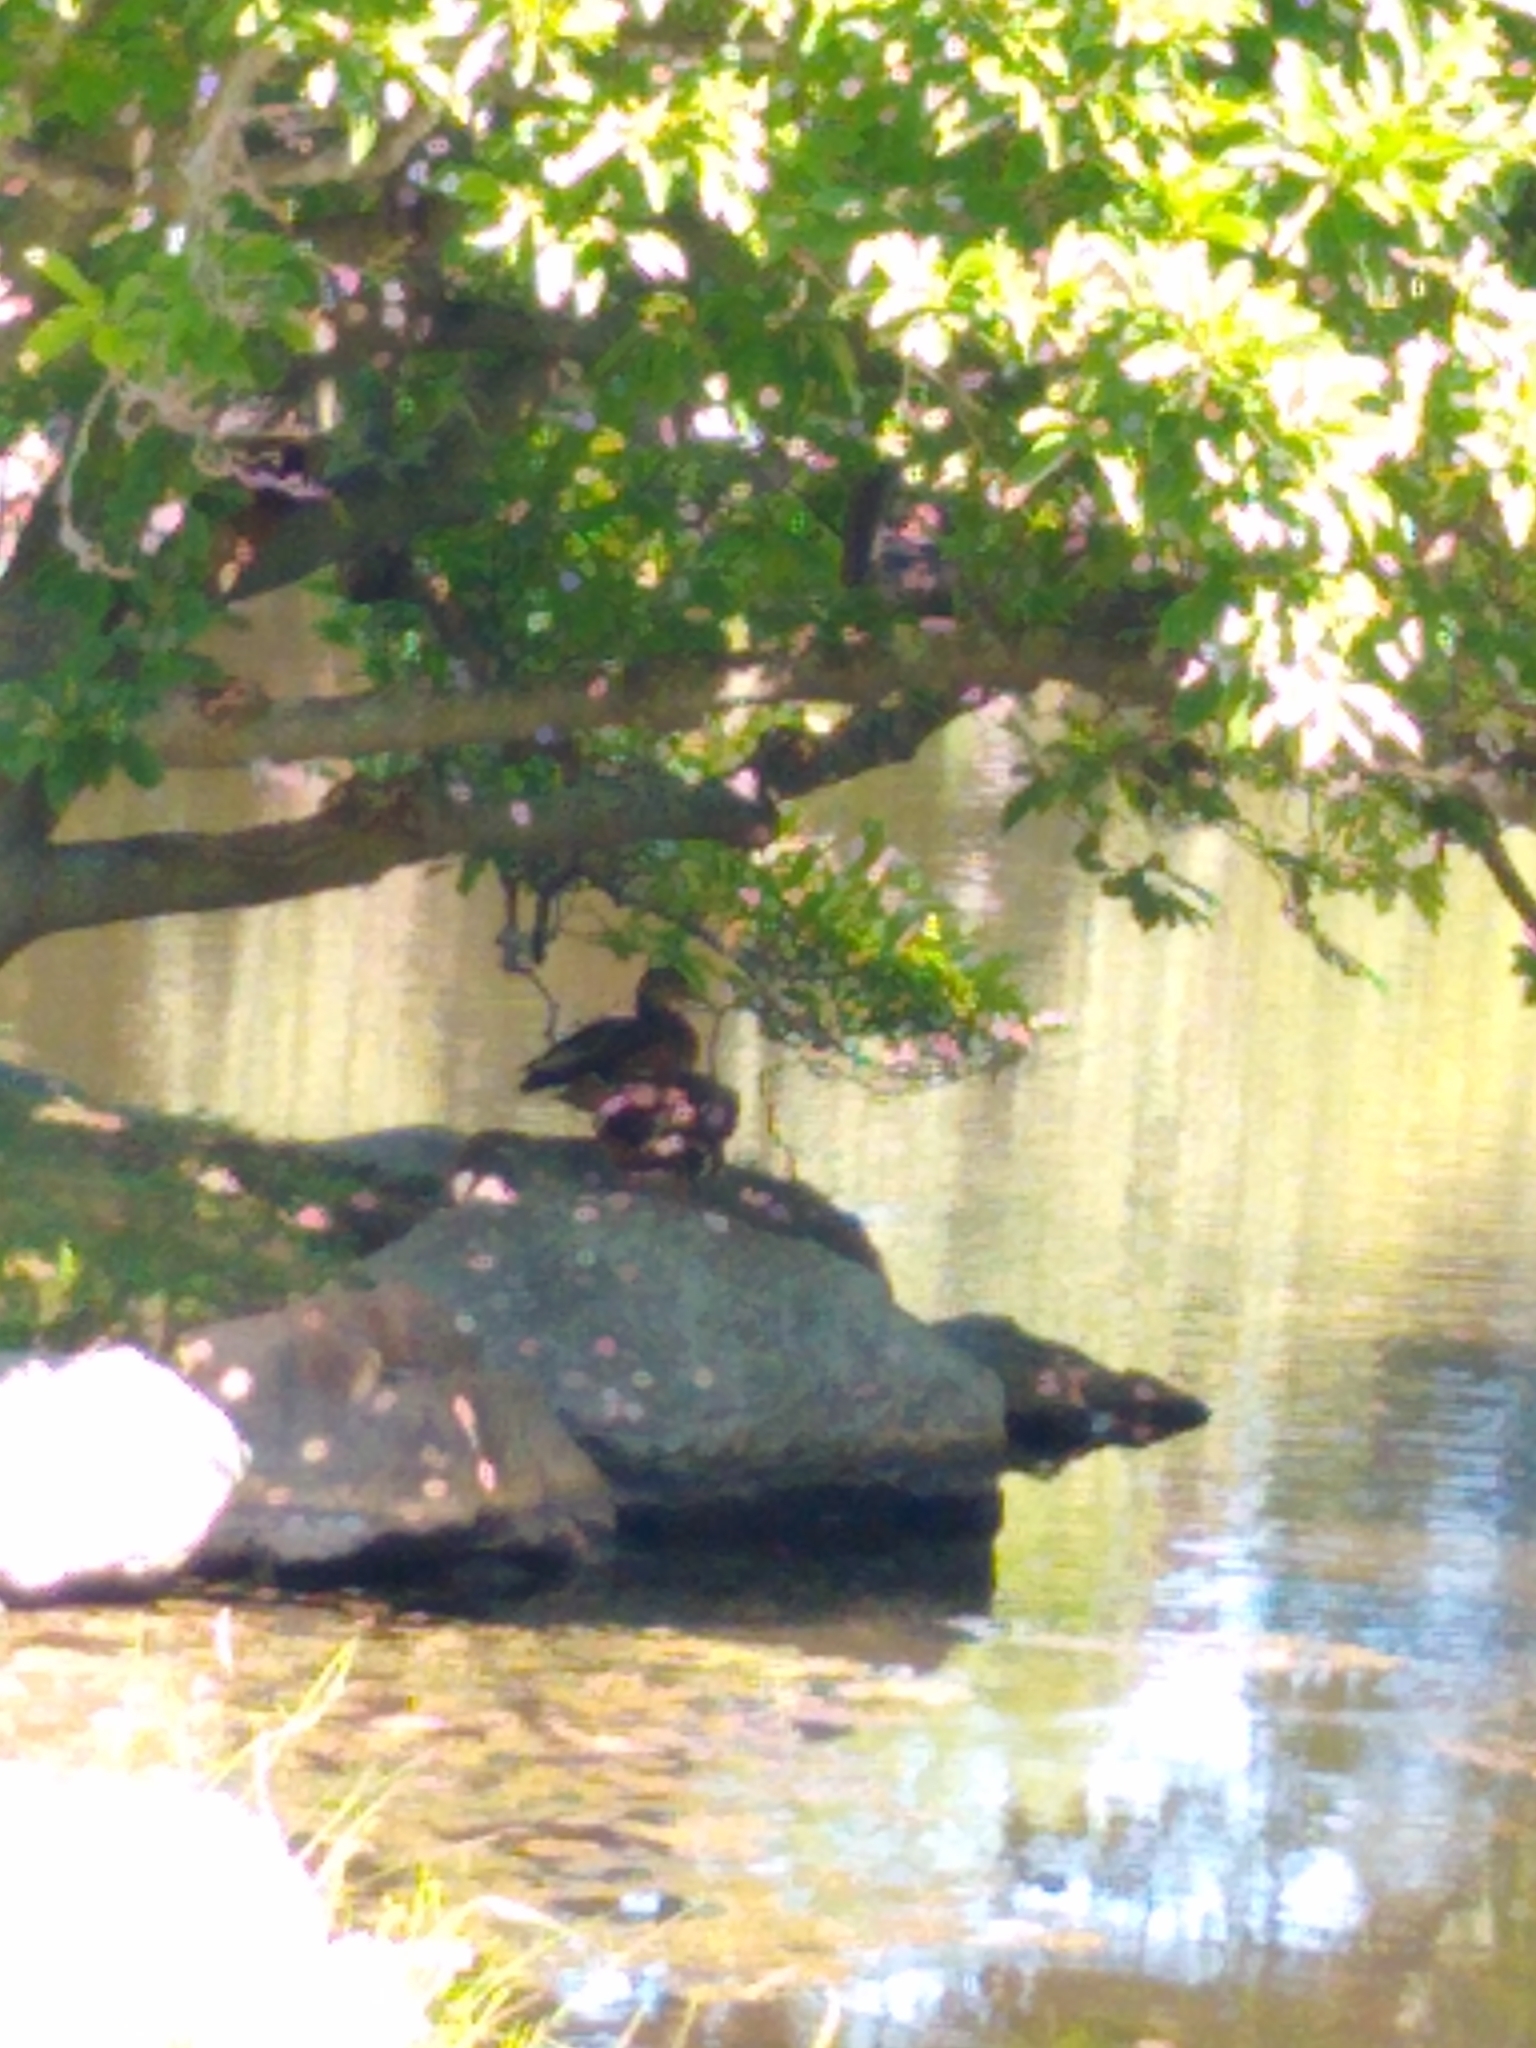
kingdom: Animalia
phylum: Chordata
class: Aves
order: Anseriformes
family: Anatidae
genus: Anas
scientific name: Anas platyrhynchos
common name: Mallard
